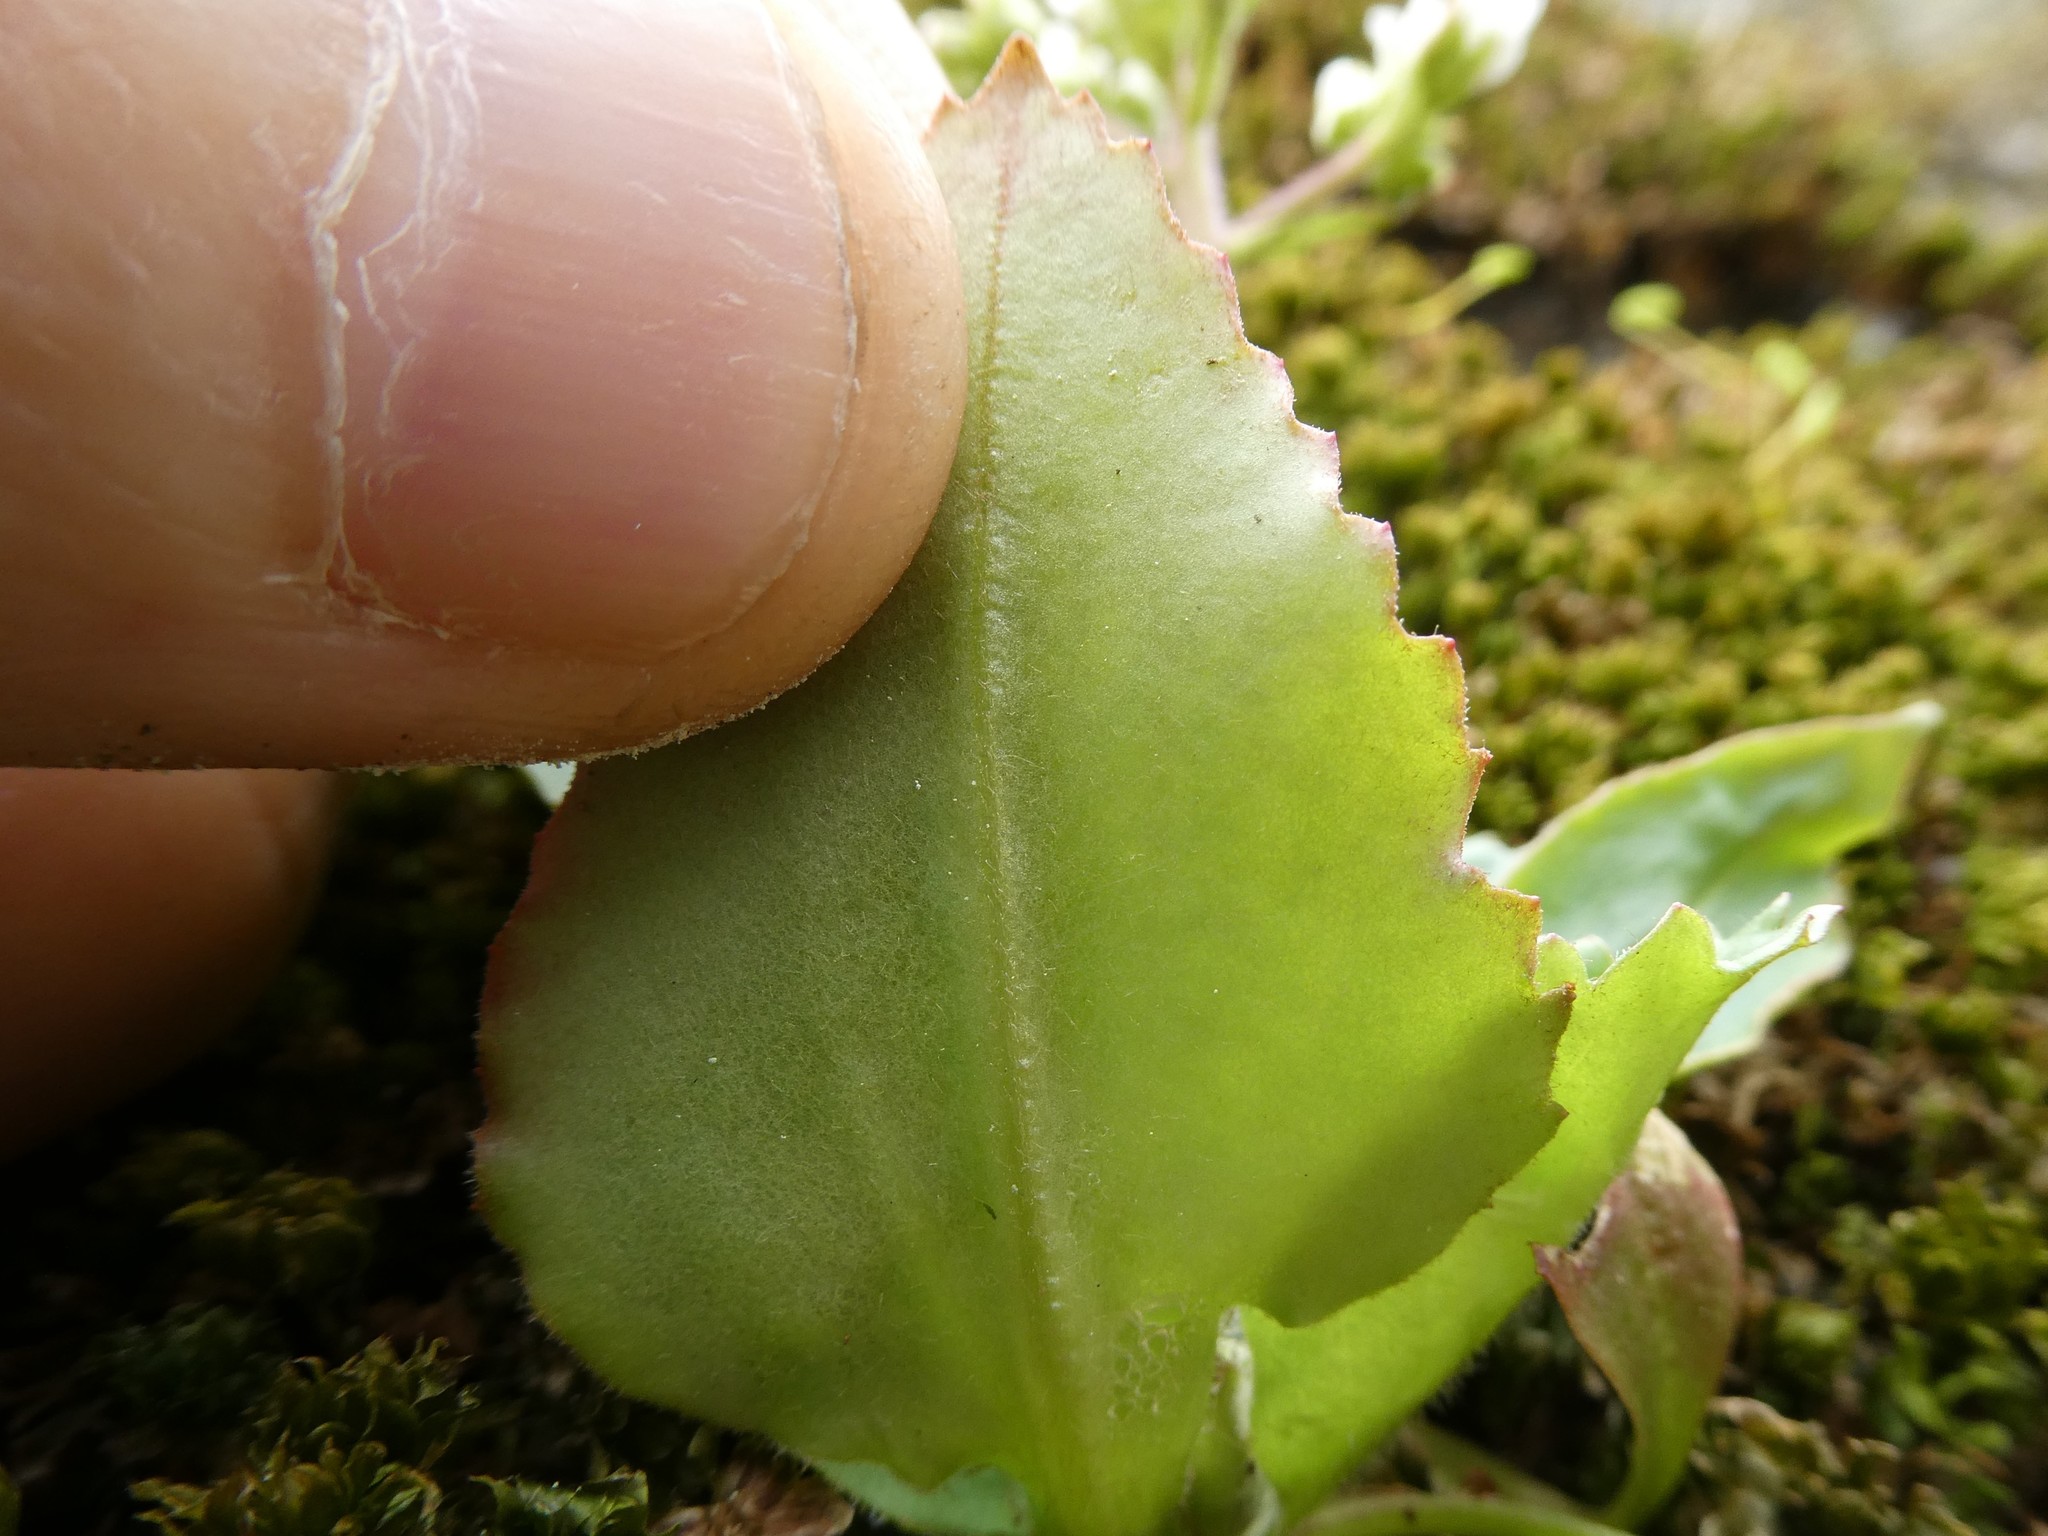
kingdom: Plantae
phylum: Tracheophyta
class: Magnoliopsida
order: Saxifragales
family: Saxifragaceae
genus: Micranthes
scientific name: Micranthes virginiensis
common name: Early saxifrage
